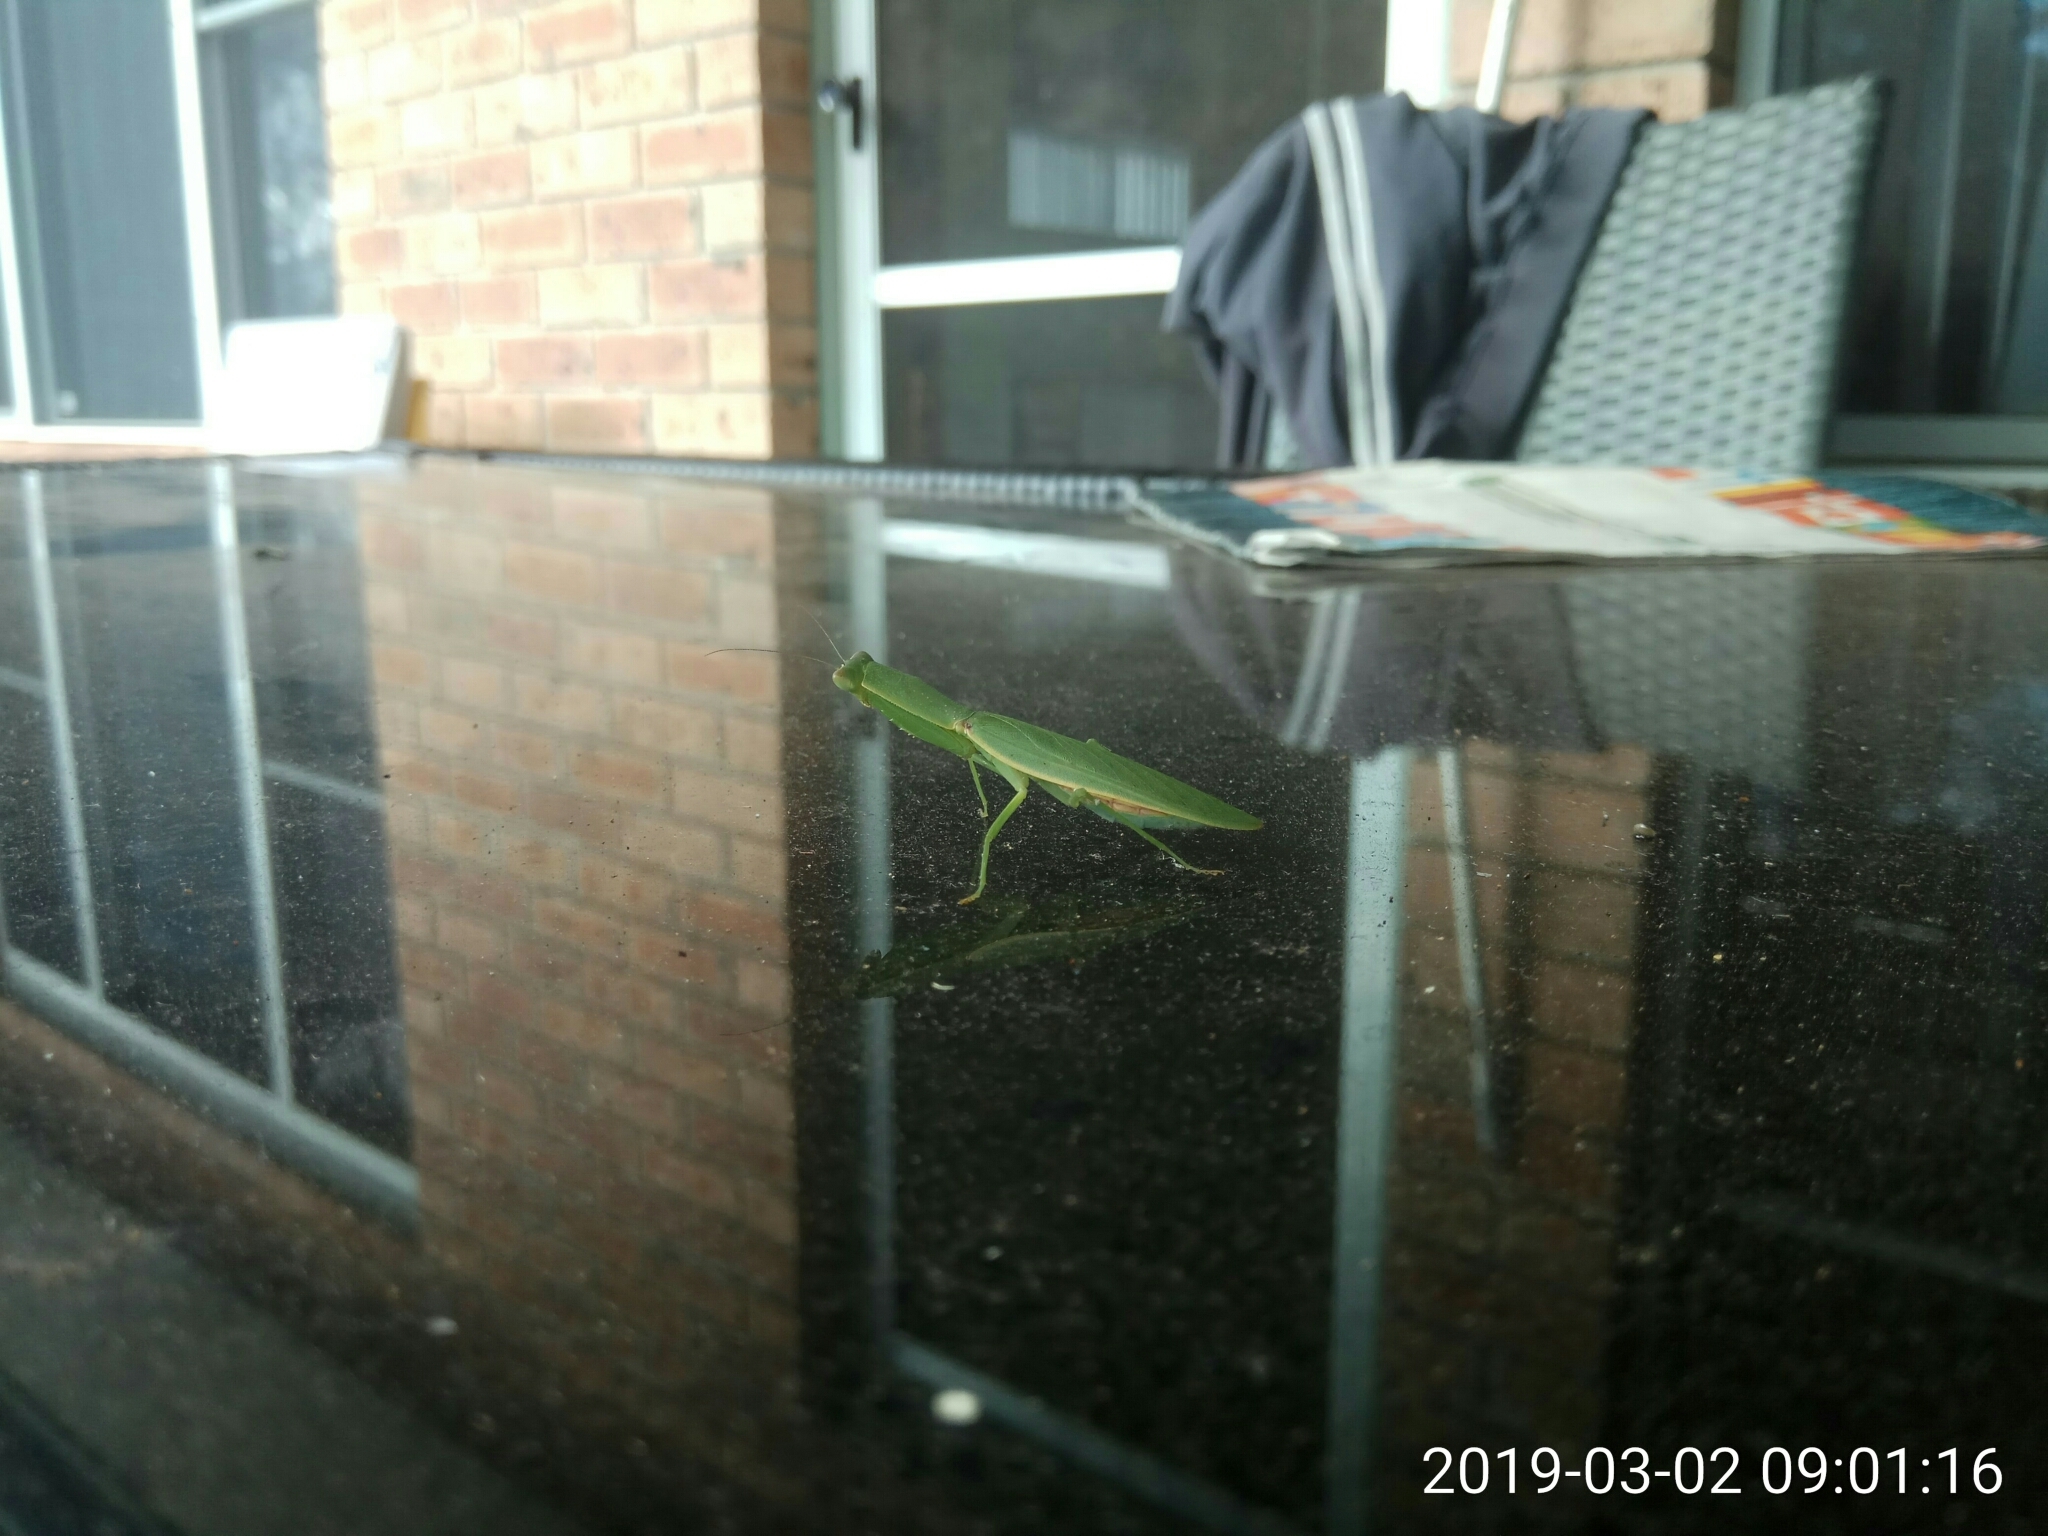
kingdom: Animalia
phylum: Arthropoda
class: Insecta
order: Mantodea
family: Mantidae
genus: Orthodera
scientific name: Orthodera ministralis
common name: Mantis
